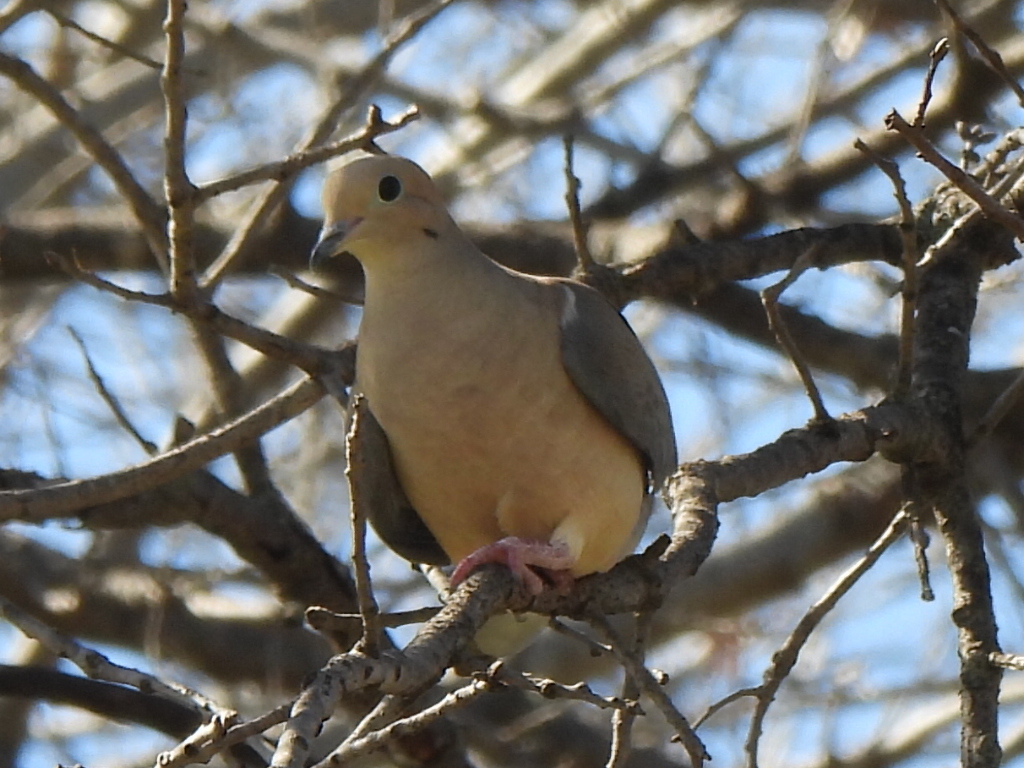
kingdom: Animalia
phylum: Chordata
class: Aves
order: Columbiformes
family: Columbidae
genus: Zenaida
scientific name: Zenaida macroura
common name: Mourning dove
